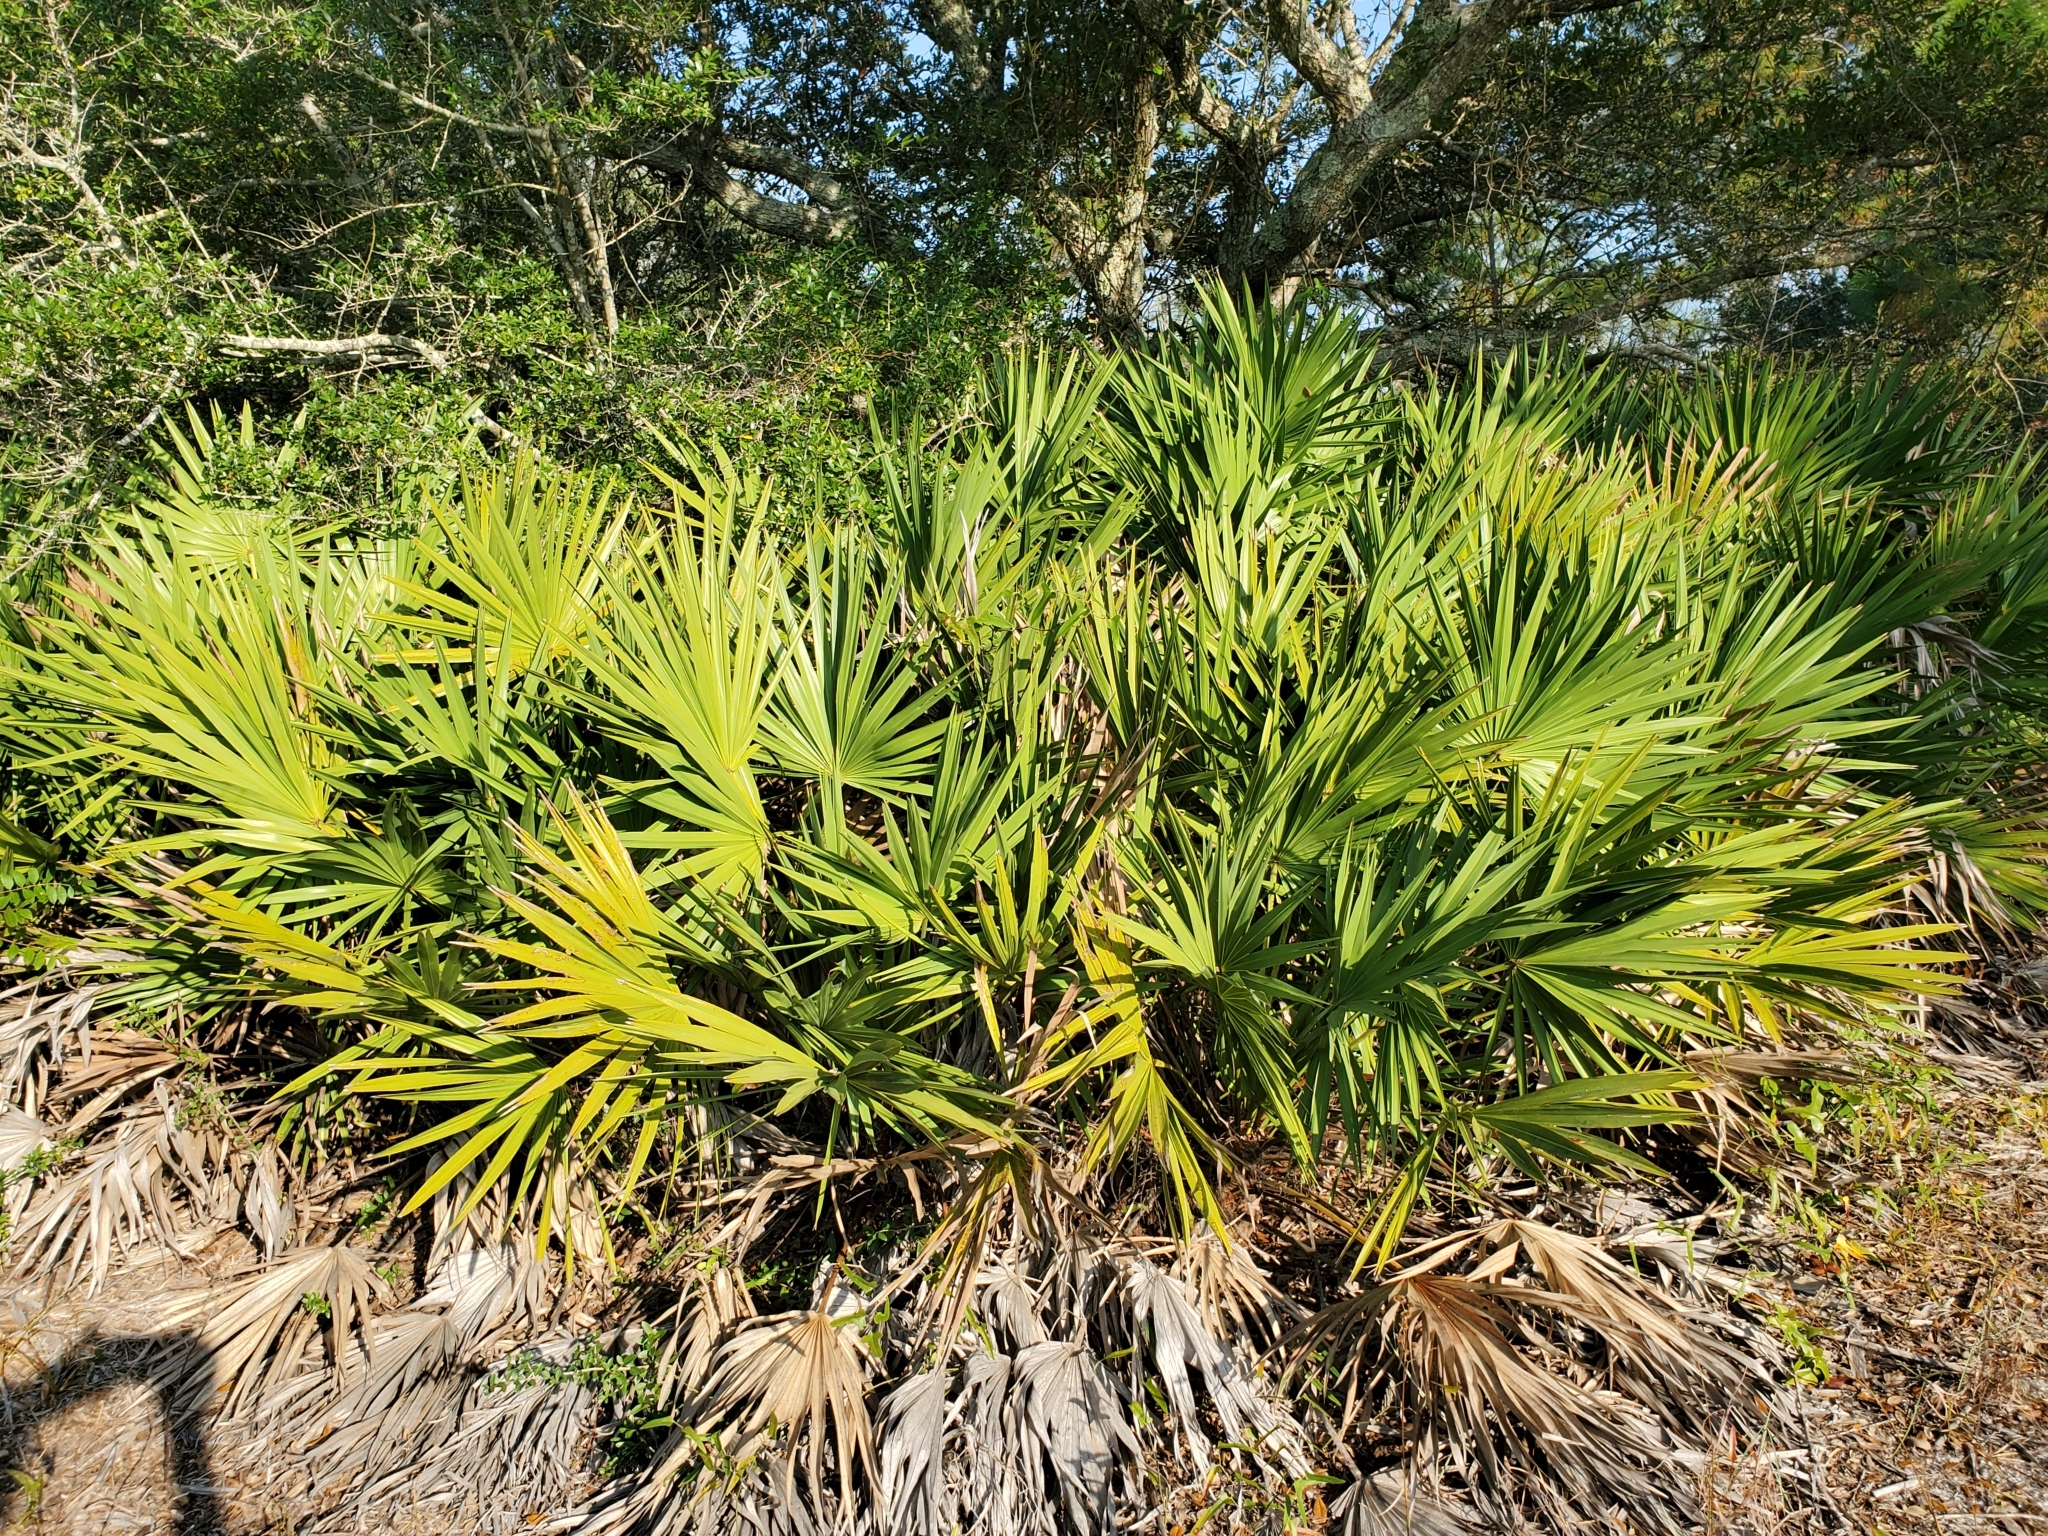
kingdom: Plantae
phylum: Tracheophyta
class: Liliopsida
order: Arecales
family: Arecaceae
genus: Serenoa
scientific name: Serenoa repens
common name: Saw-palmetto
